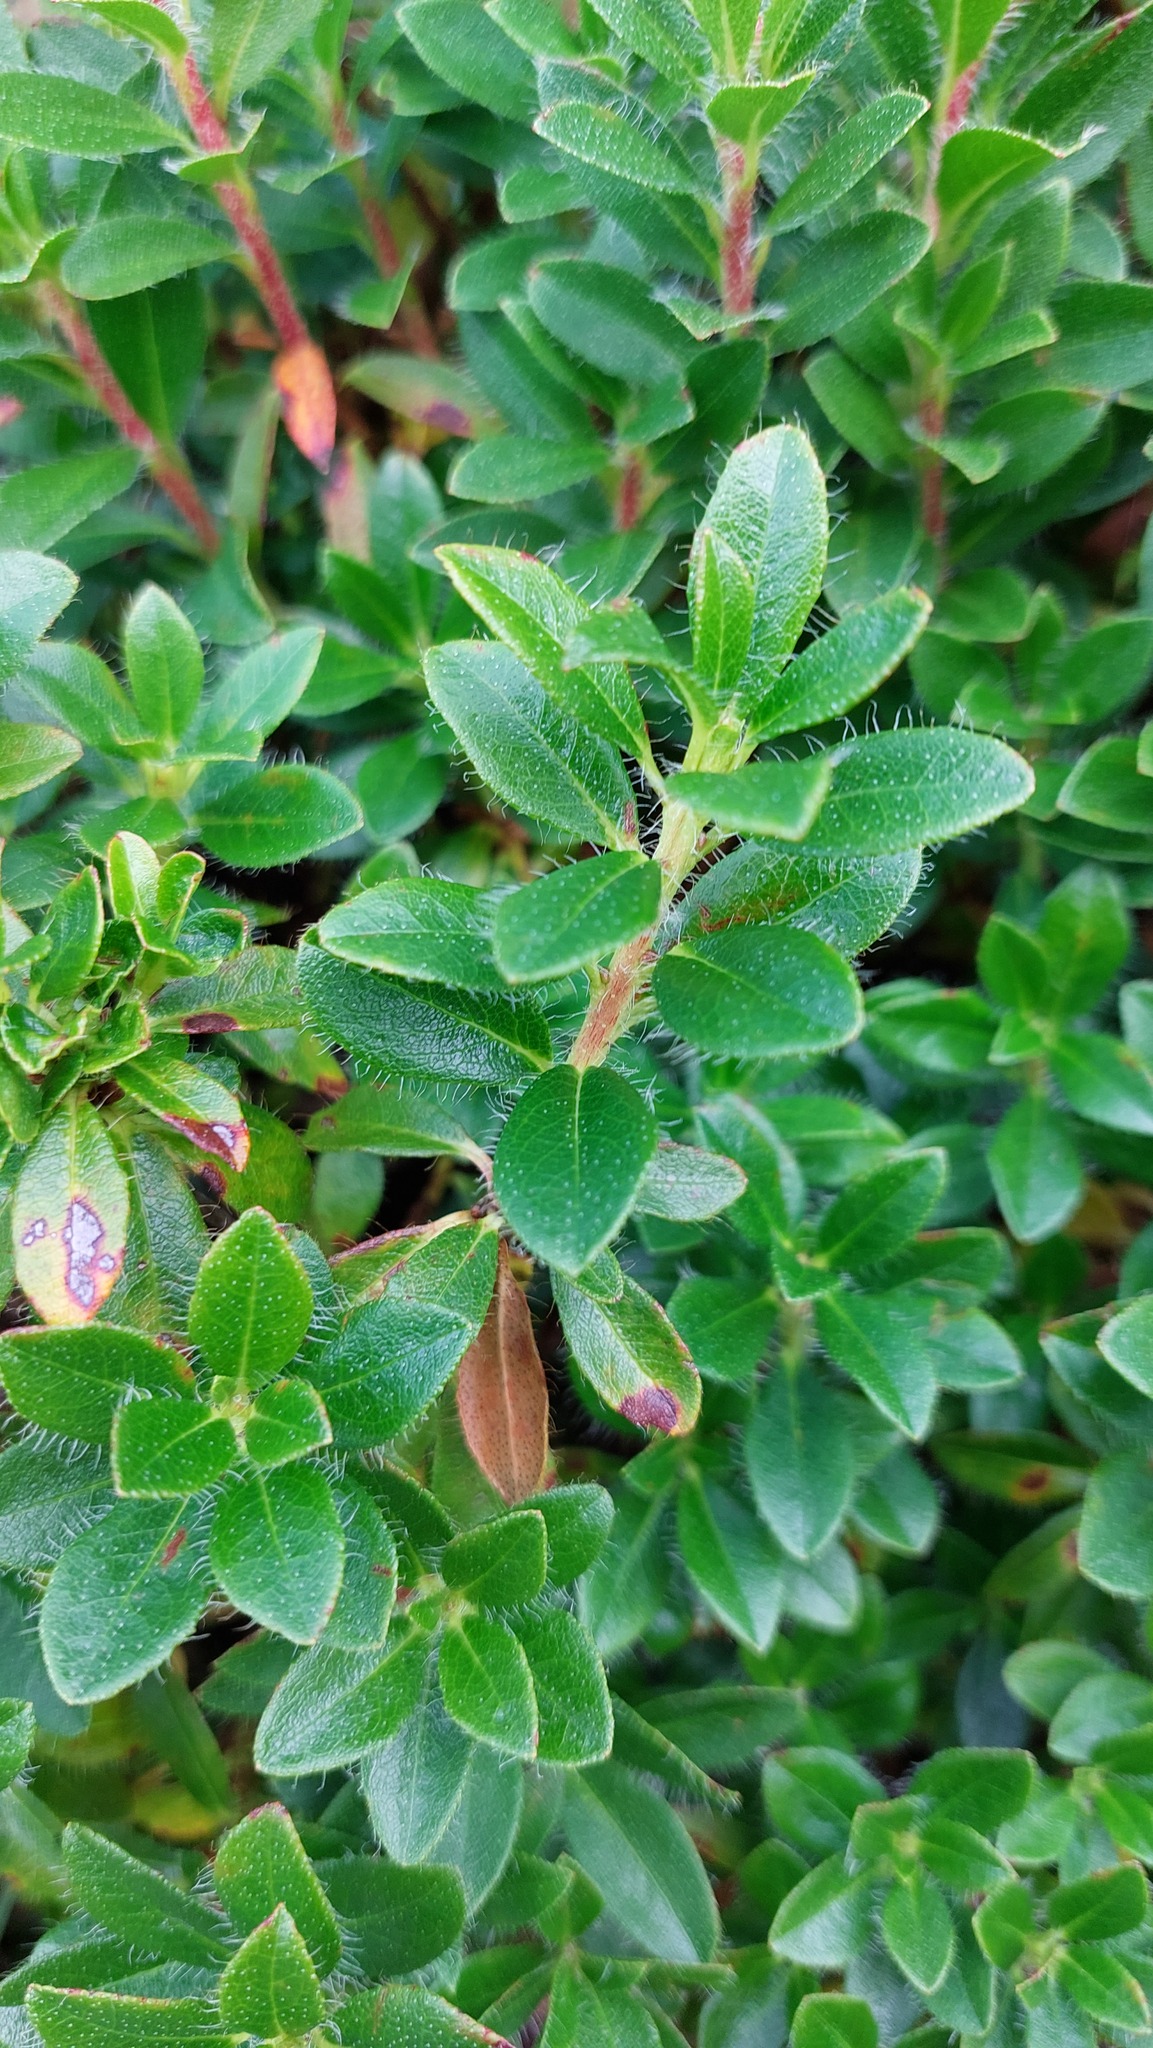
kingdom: Plantae
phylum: Tracheophyta
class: Magnoliopsida
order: Ericales
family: Ericaceae
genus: Rhododendron
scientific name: Rhododendron hirsutum
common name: Hairy alpenrose
